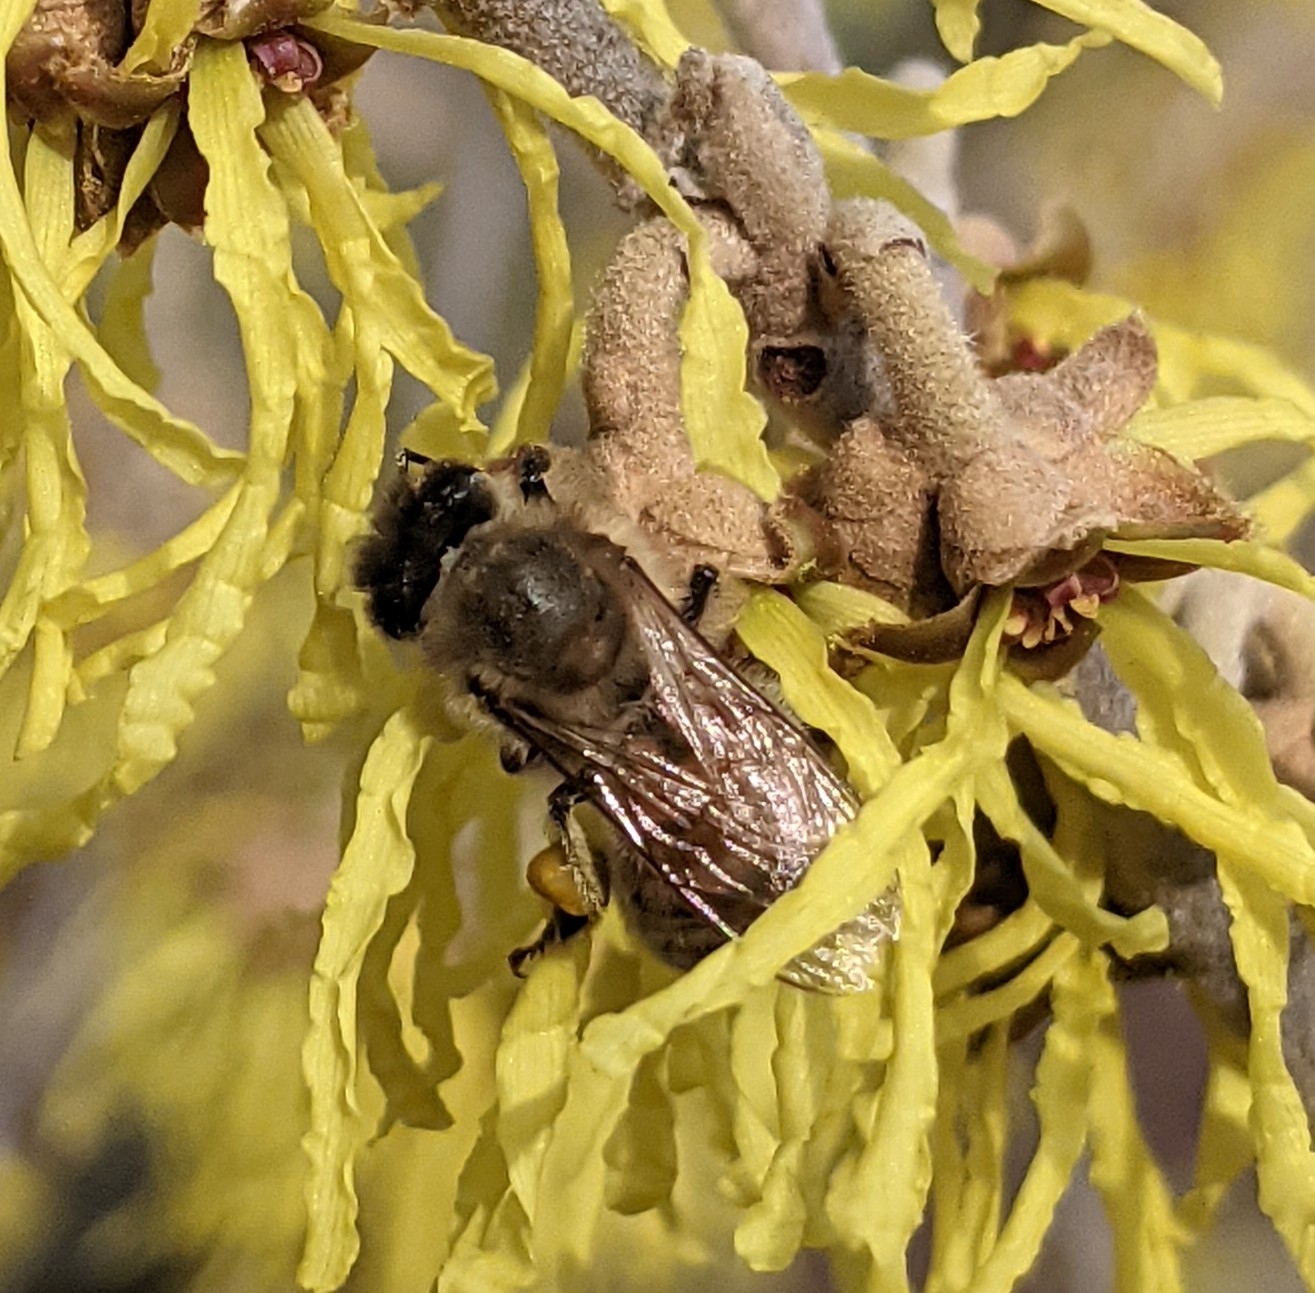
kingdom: Animalia
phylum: Arthropoda
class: Insecta
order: Hymenoptera
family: Apidae
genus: Apis
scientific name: Apis mellifera
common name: Honey bee
